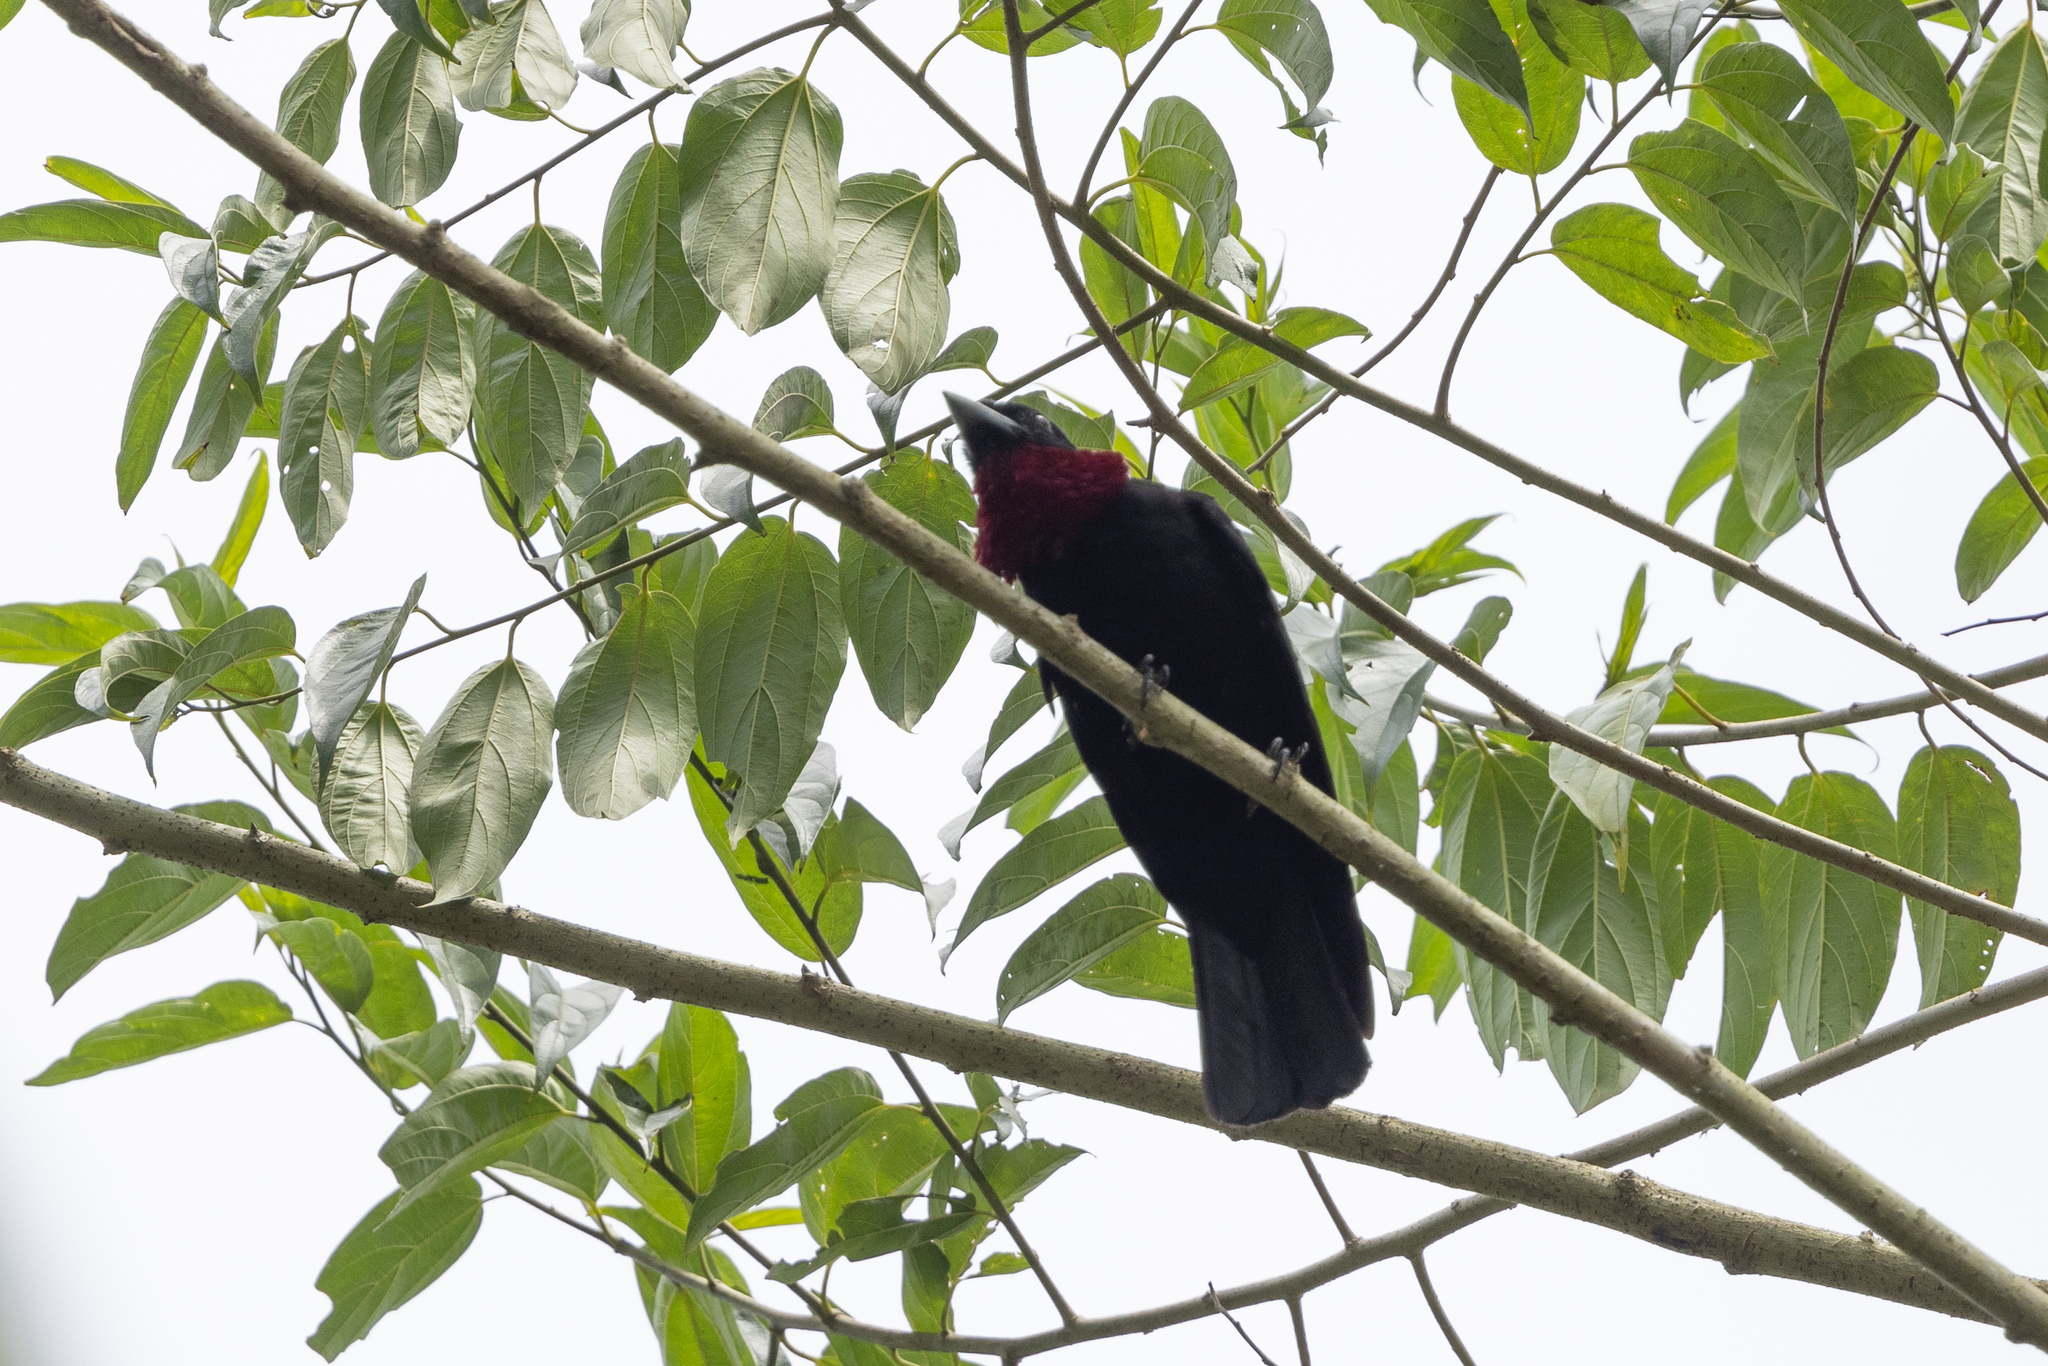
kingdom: Animalia
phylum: Chordata
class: Aves
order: Passeriformes
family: Cotingidae
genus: Querula
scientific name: Querula purpurata
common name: Purple-throated fruitcrow
